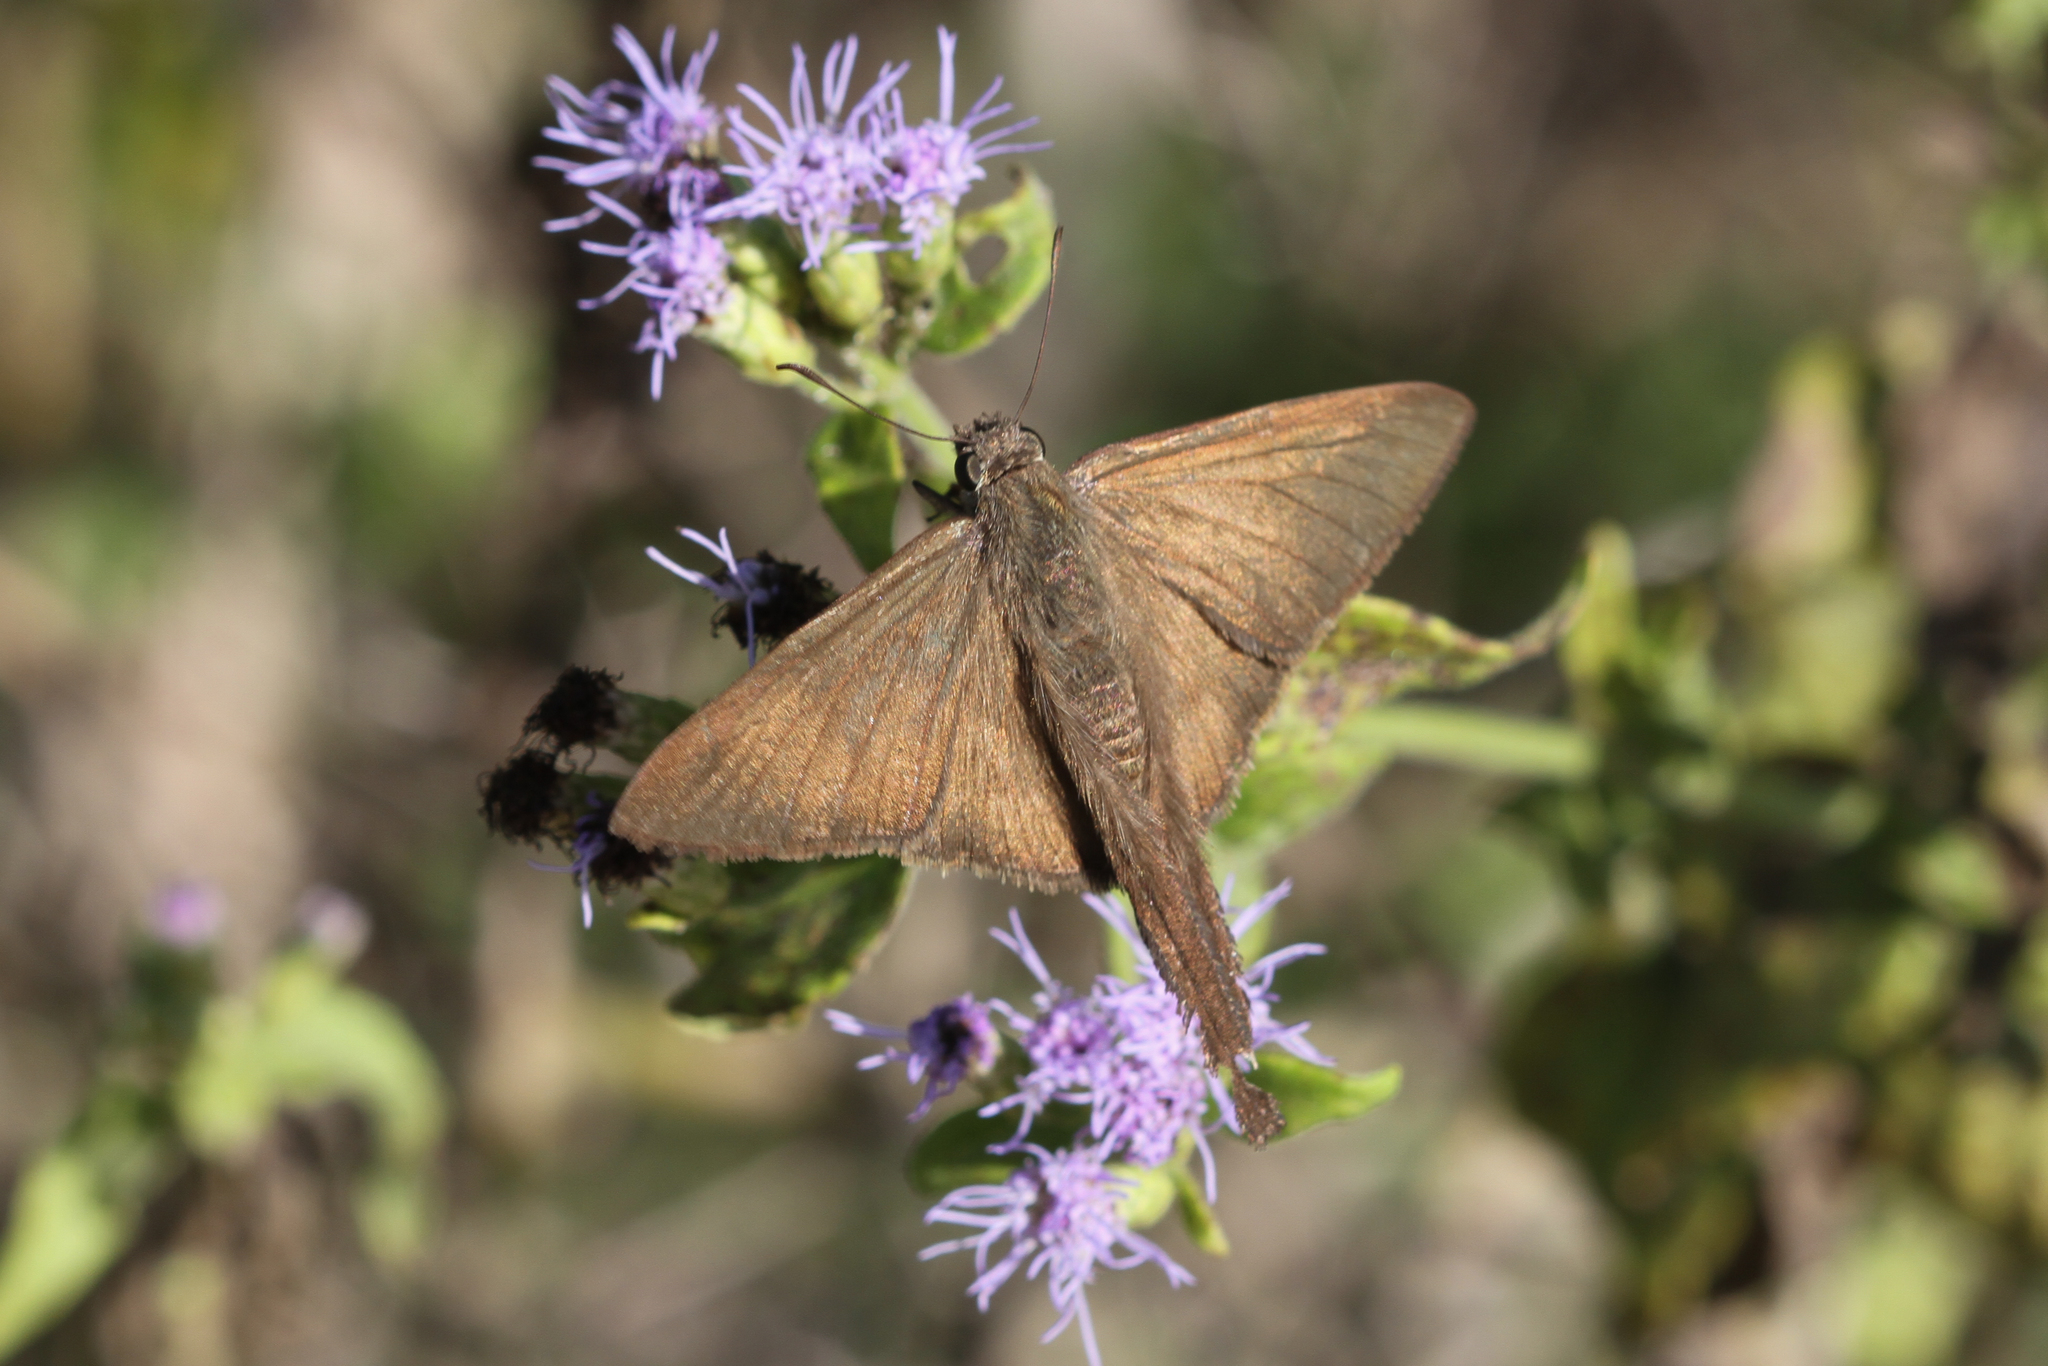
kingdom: Animalia
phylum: Arthropoda
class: Insecta
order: Lepidoptera
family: Hesperiidae
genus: Urbanus
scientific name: Urbanus procne
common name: Brown longtail
